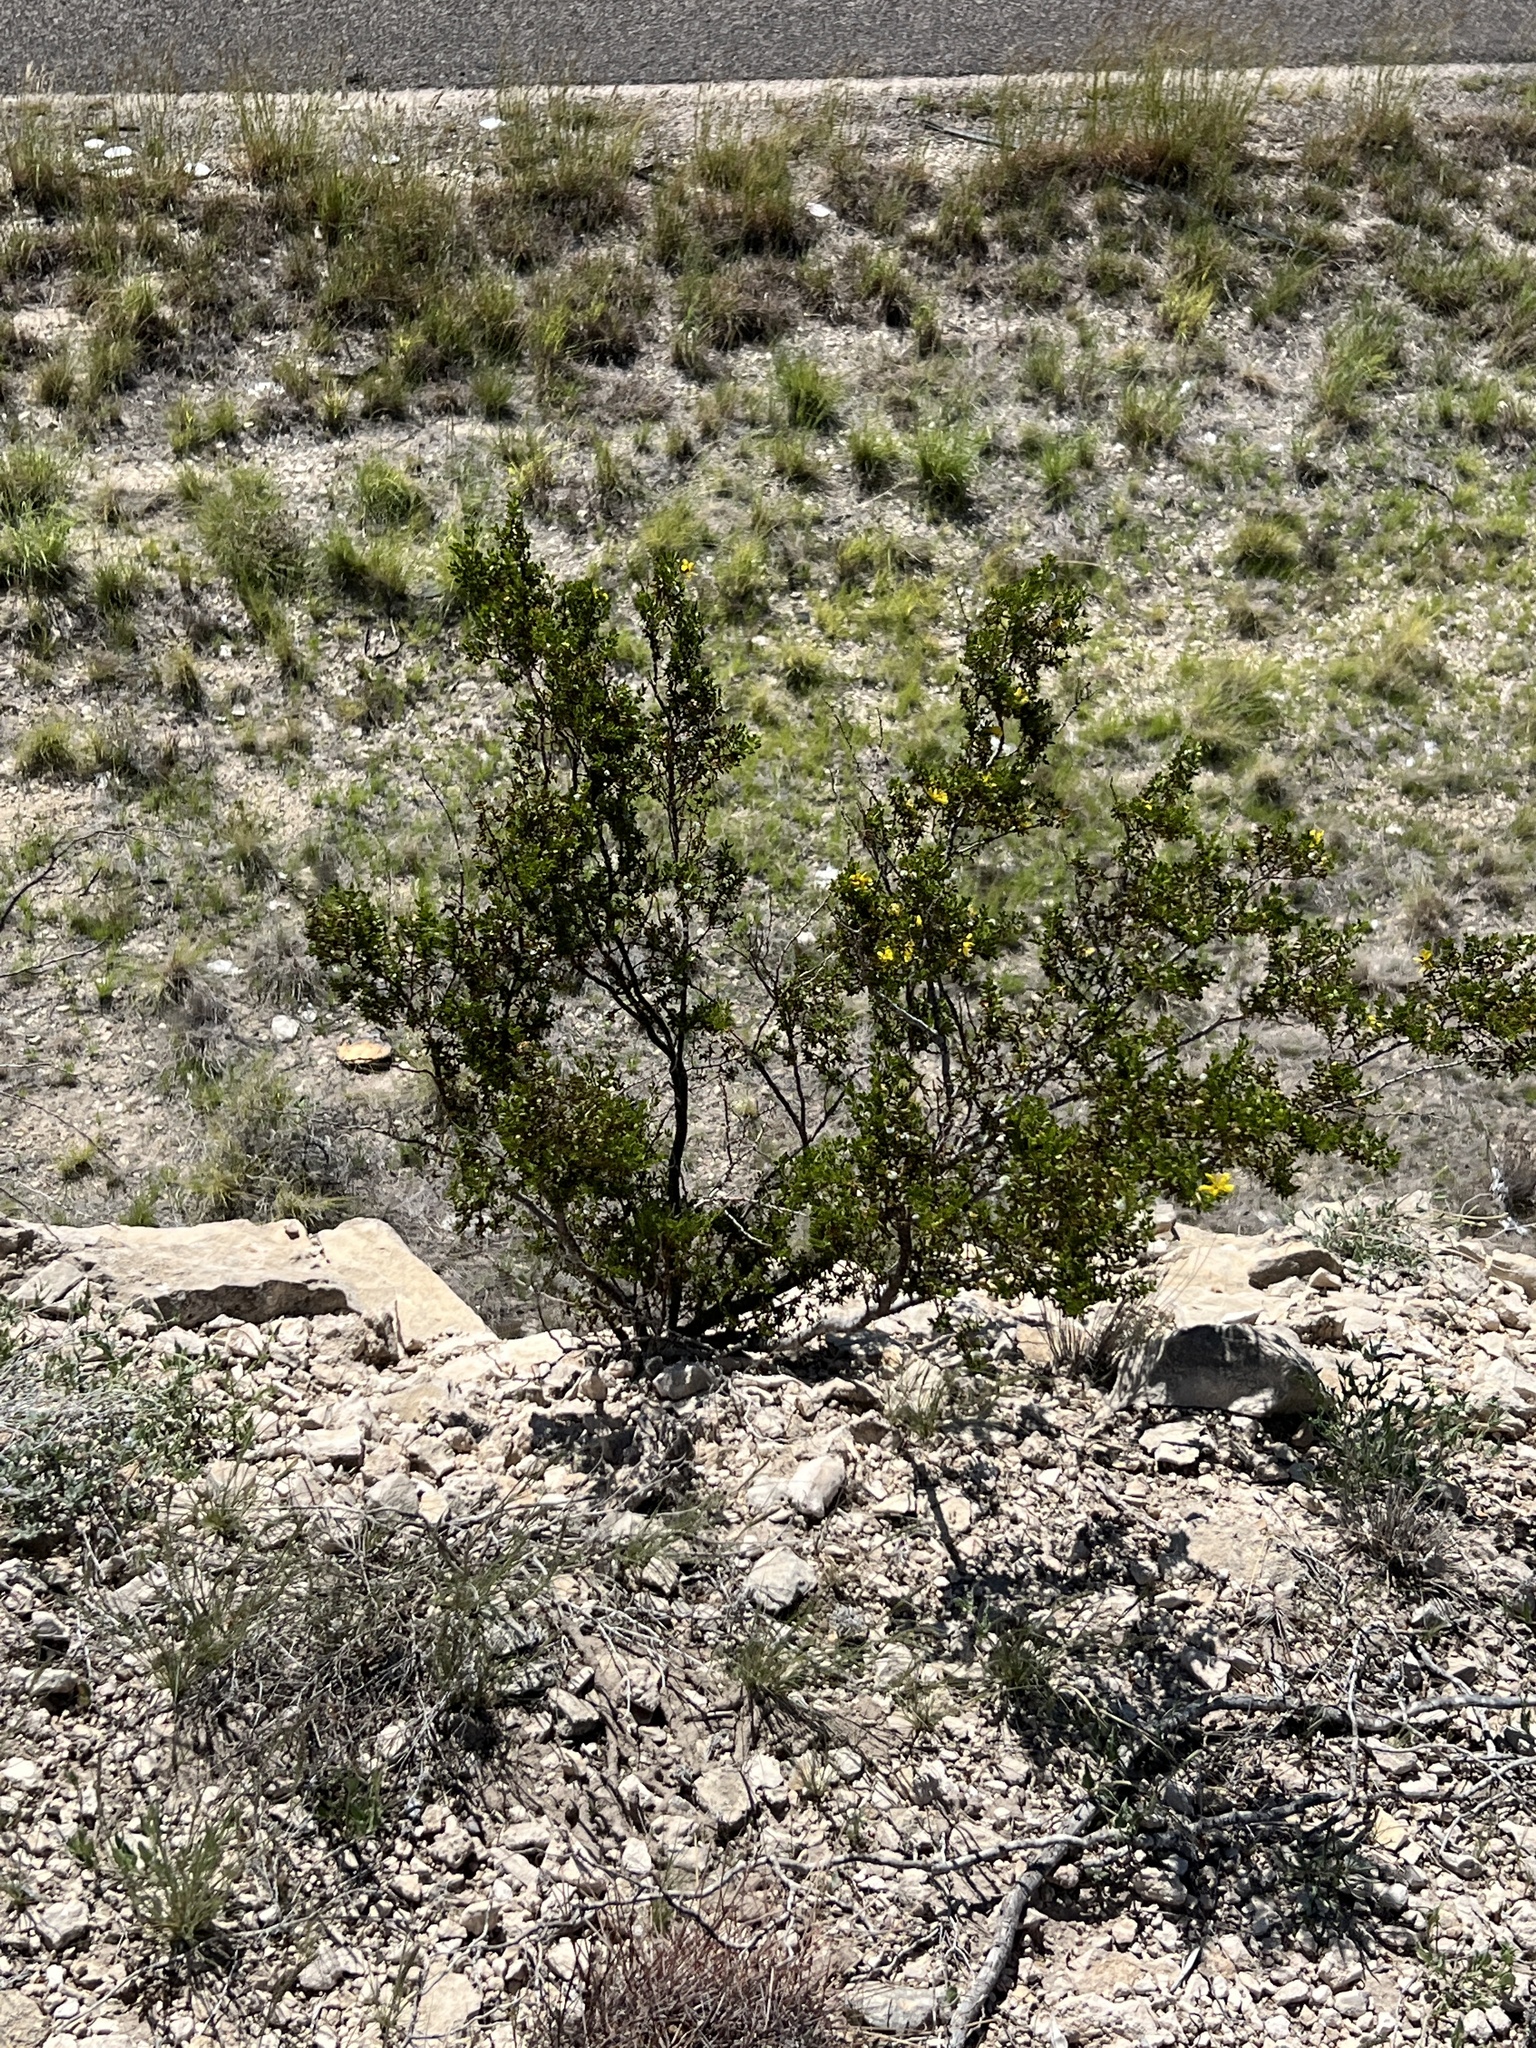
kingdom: Plantae
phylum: Tracheophyta
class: Magnoliopsida
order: Zygophyllales
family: Zygophyllaceae
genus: Larrea
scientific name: Larrea tridentata
